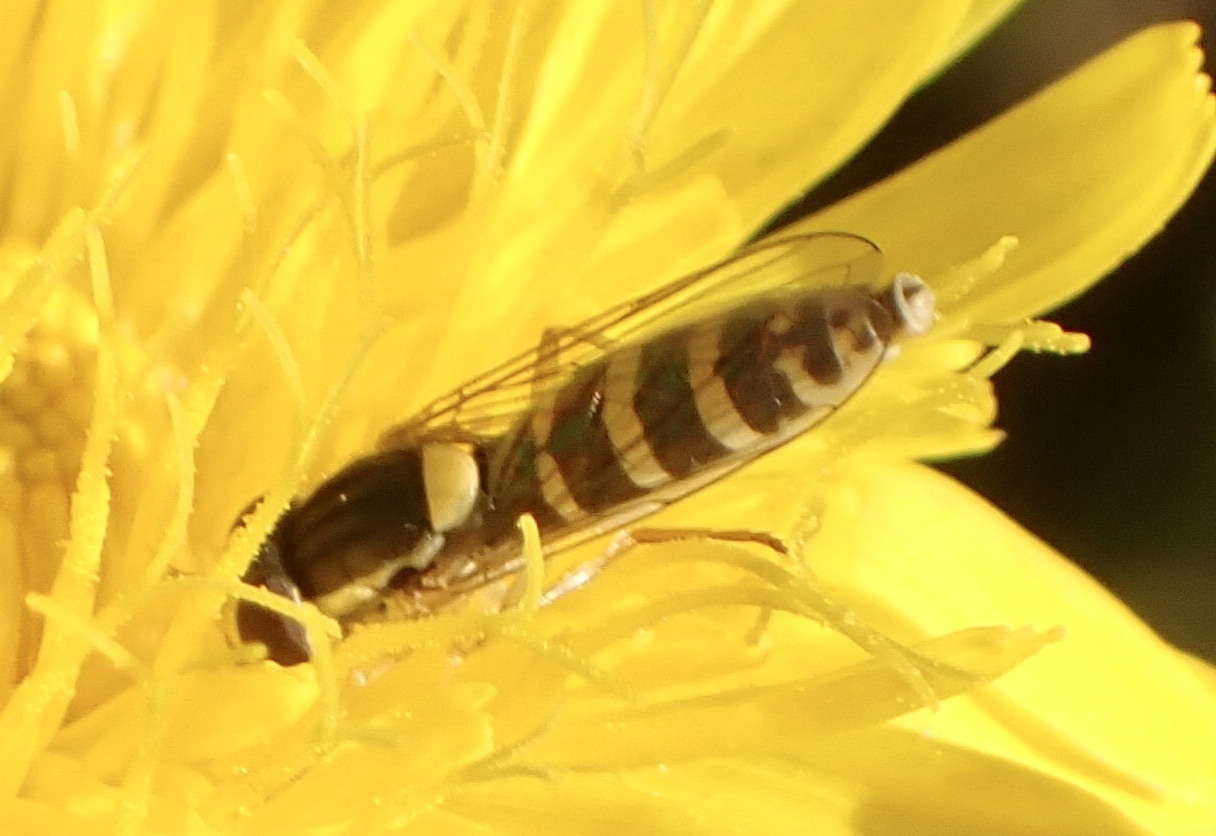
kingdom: Animalia
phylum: Arthropoda
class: Insecta
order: Diptera
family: Syrphidae
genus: Sphaerophoria
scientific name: Sphaerophoria
